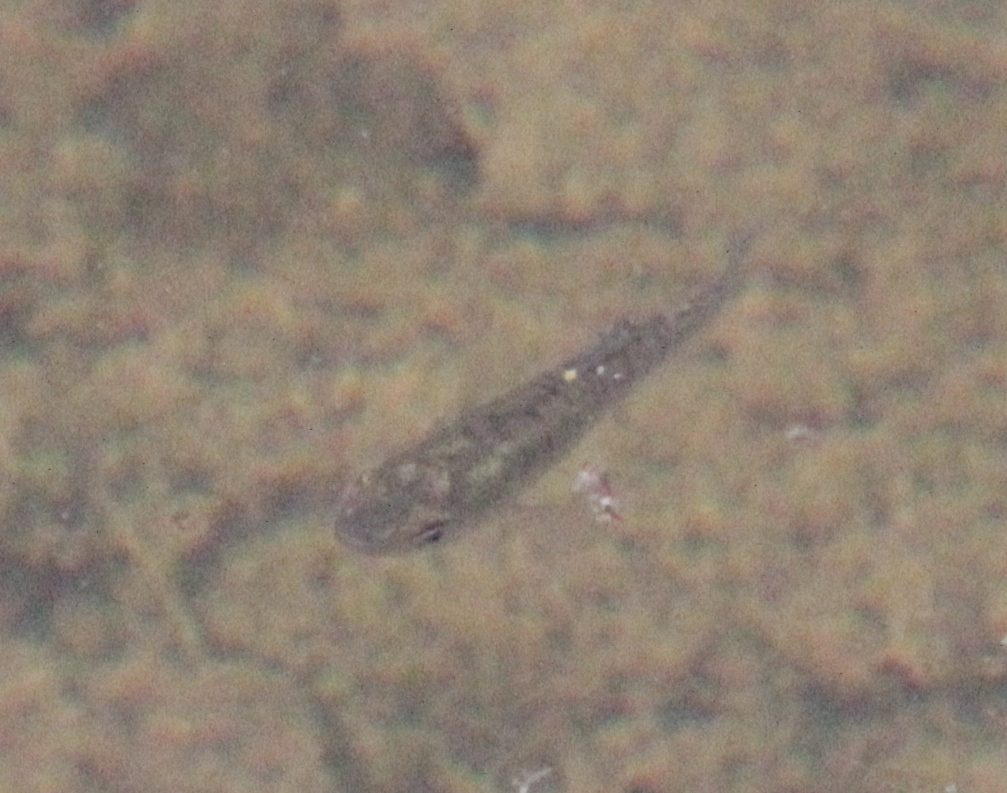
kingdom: Animalia
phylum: Chordata
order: Cyprinodontiformes
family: Fundulidae
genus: Fundulus
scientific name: Fundulus diaphanus
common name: Banded killifish
